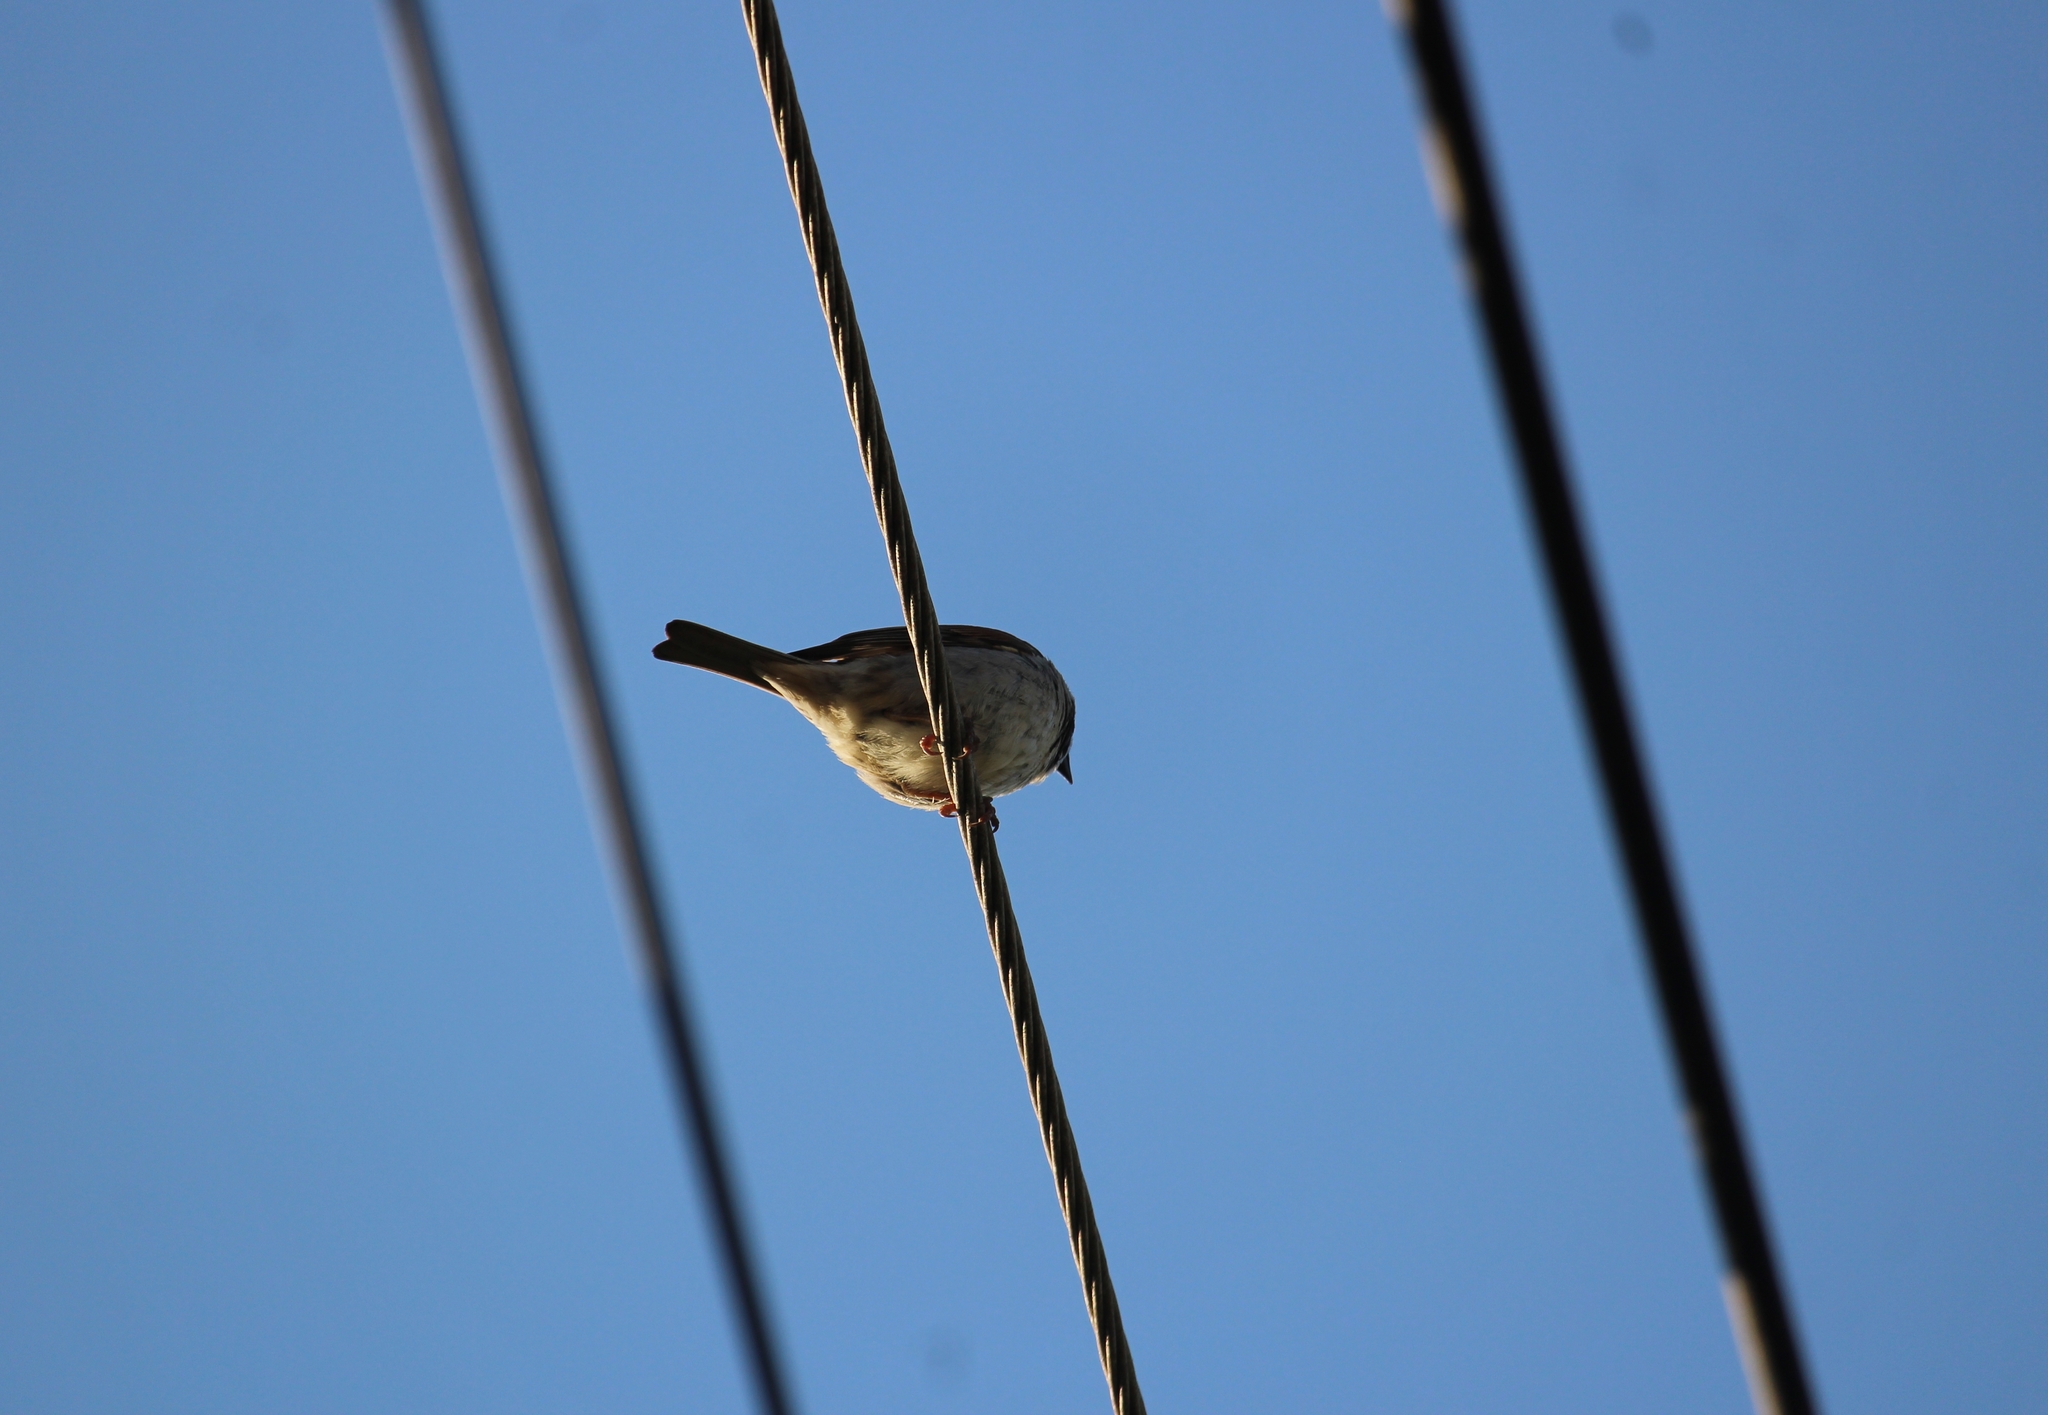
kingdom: Animalia
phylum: Chordata
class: Aves
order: Passeriformes
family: Passeridae
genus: Passer
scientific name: Passer domesticus
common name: House sparrow
